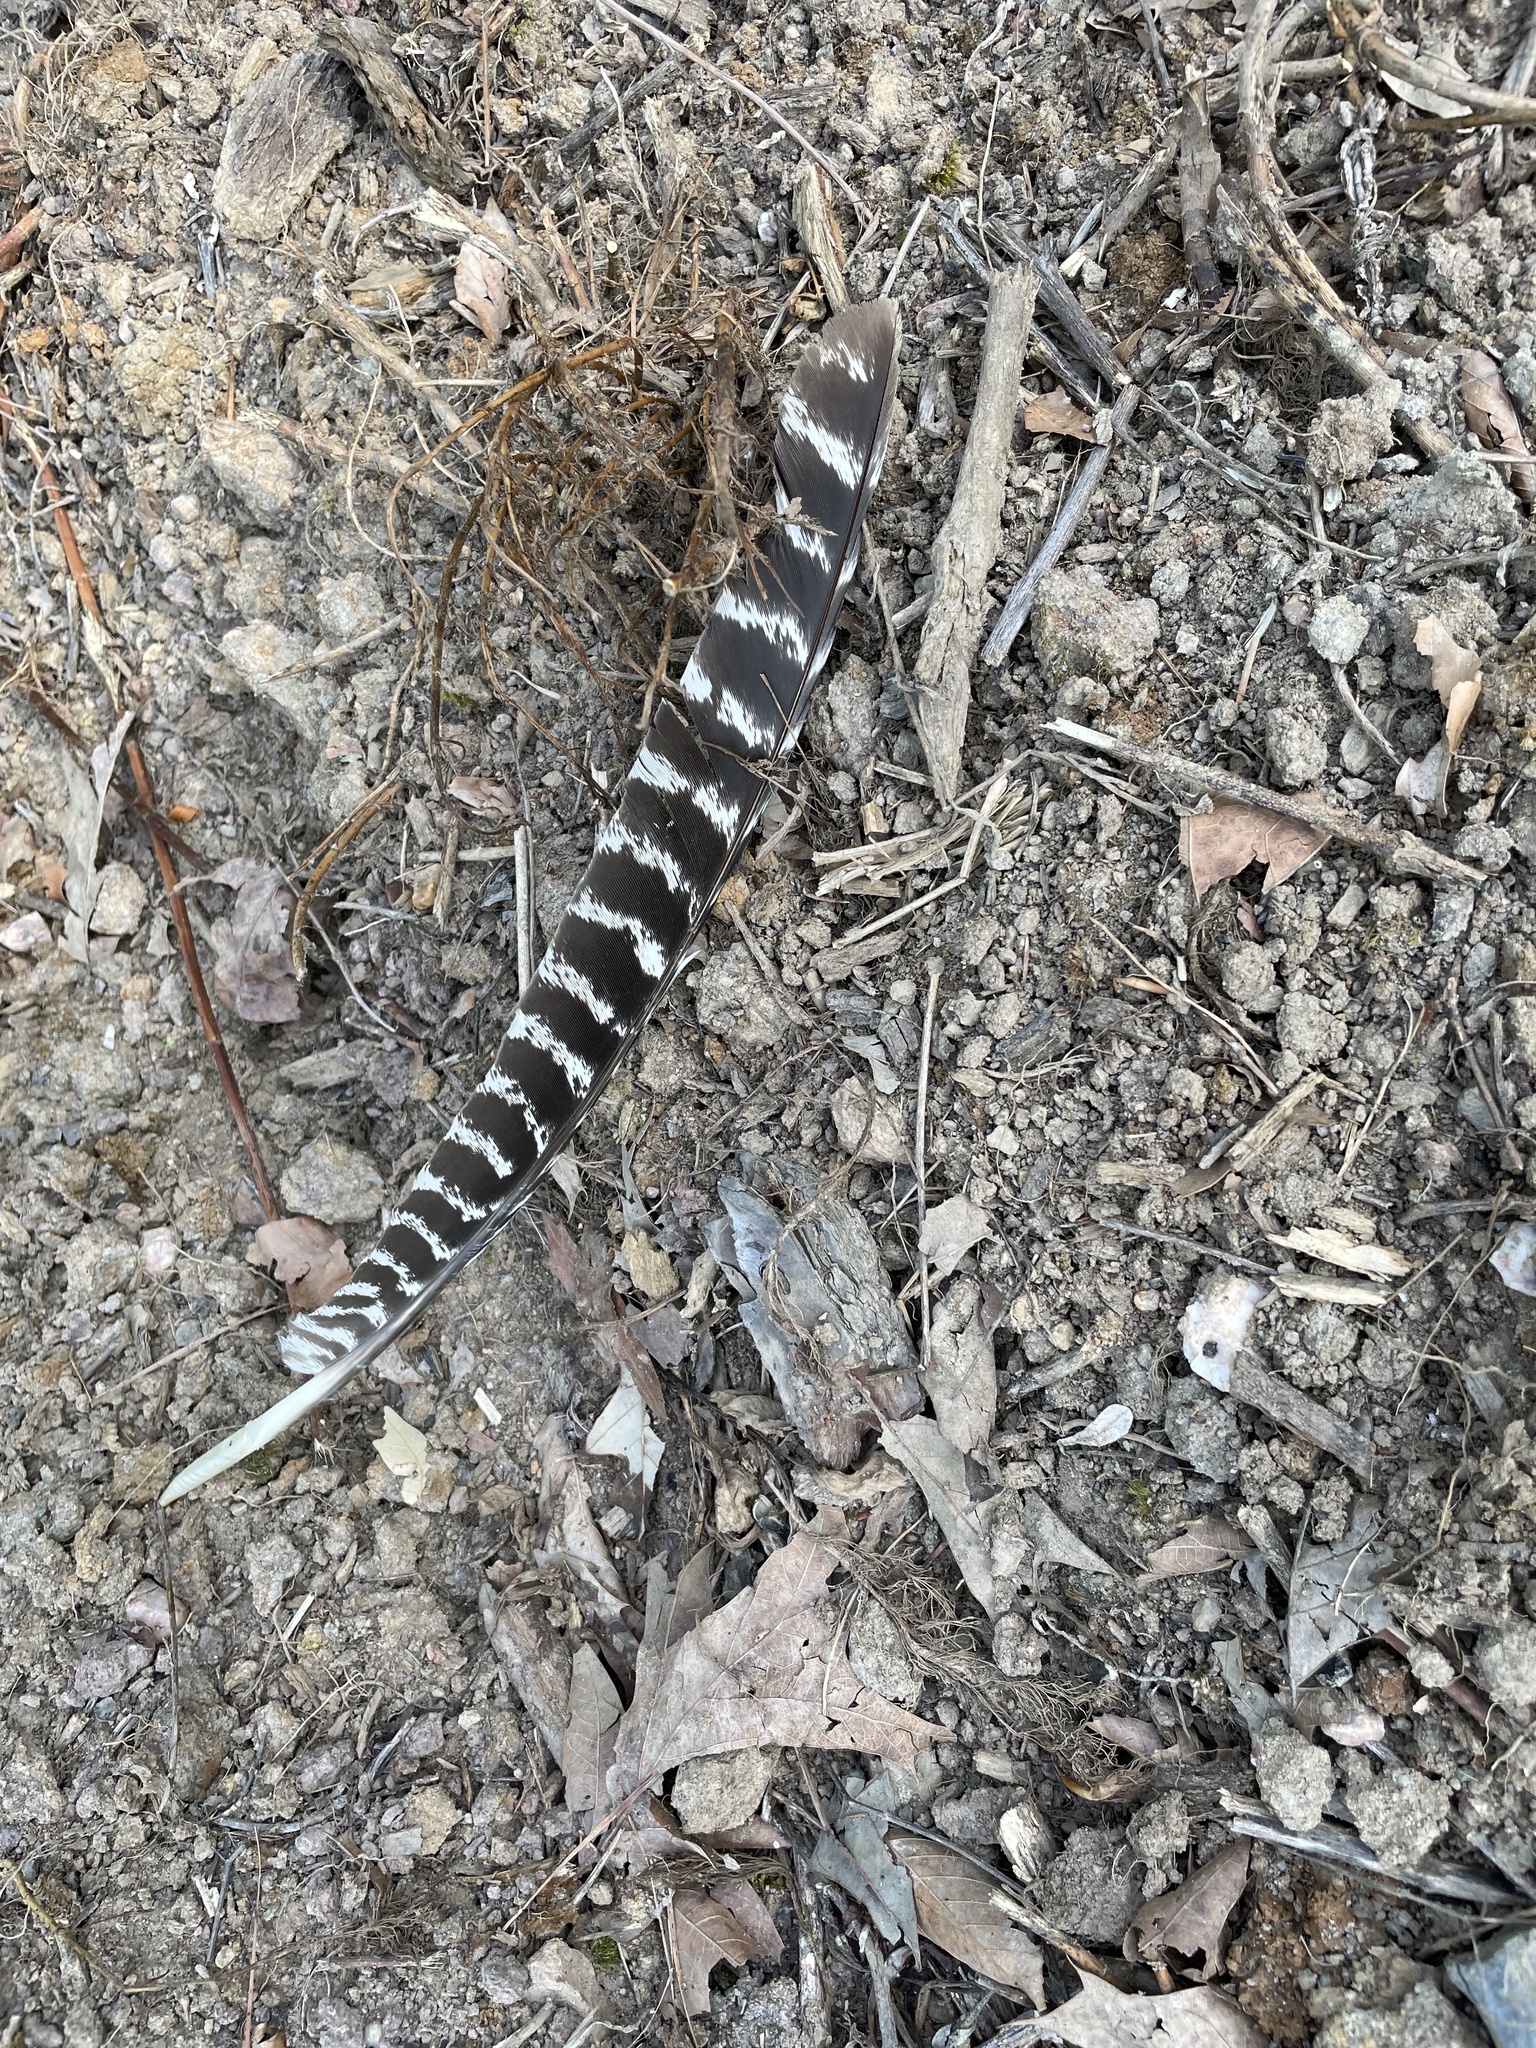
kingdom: Animalia
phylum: Chordata
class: Aves
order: Galliformes
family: Phasianidae
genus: Meleagris
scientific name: Meleagris gallopavo
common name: Wild turkey
